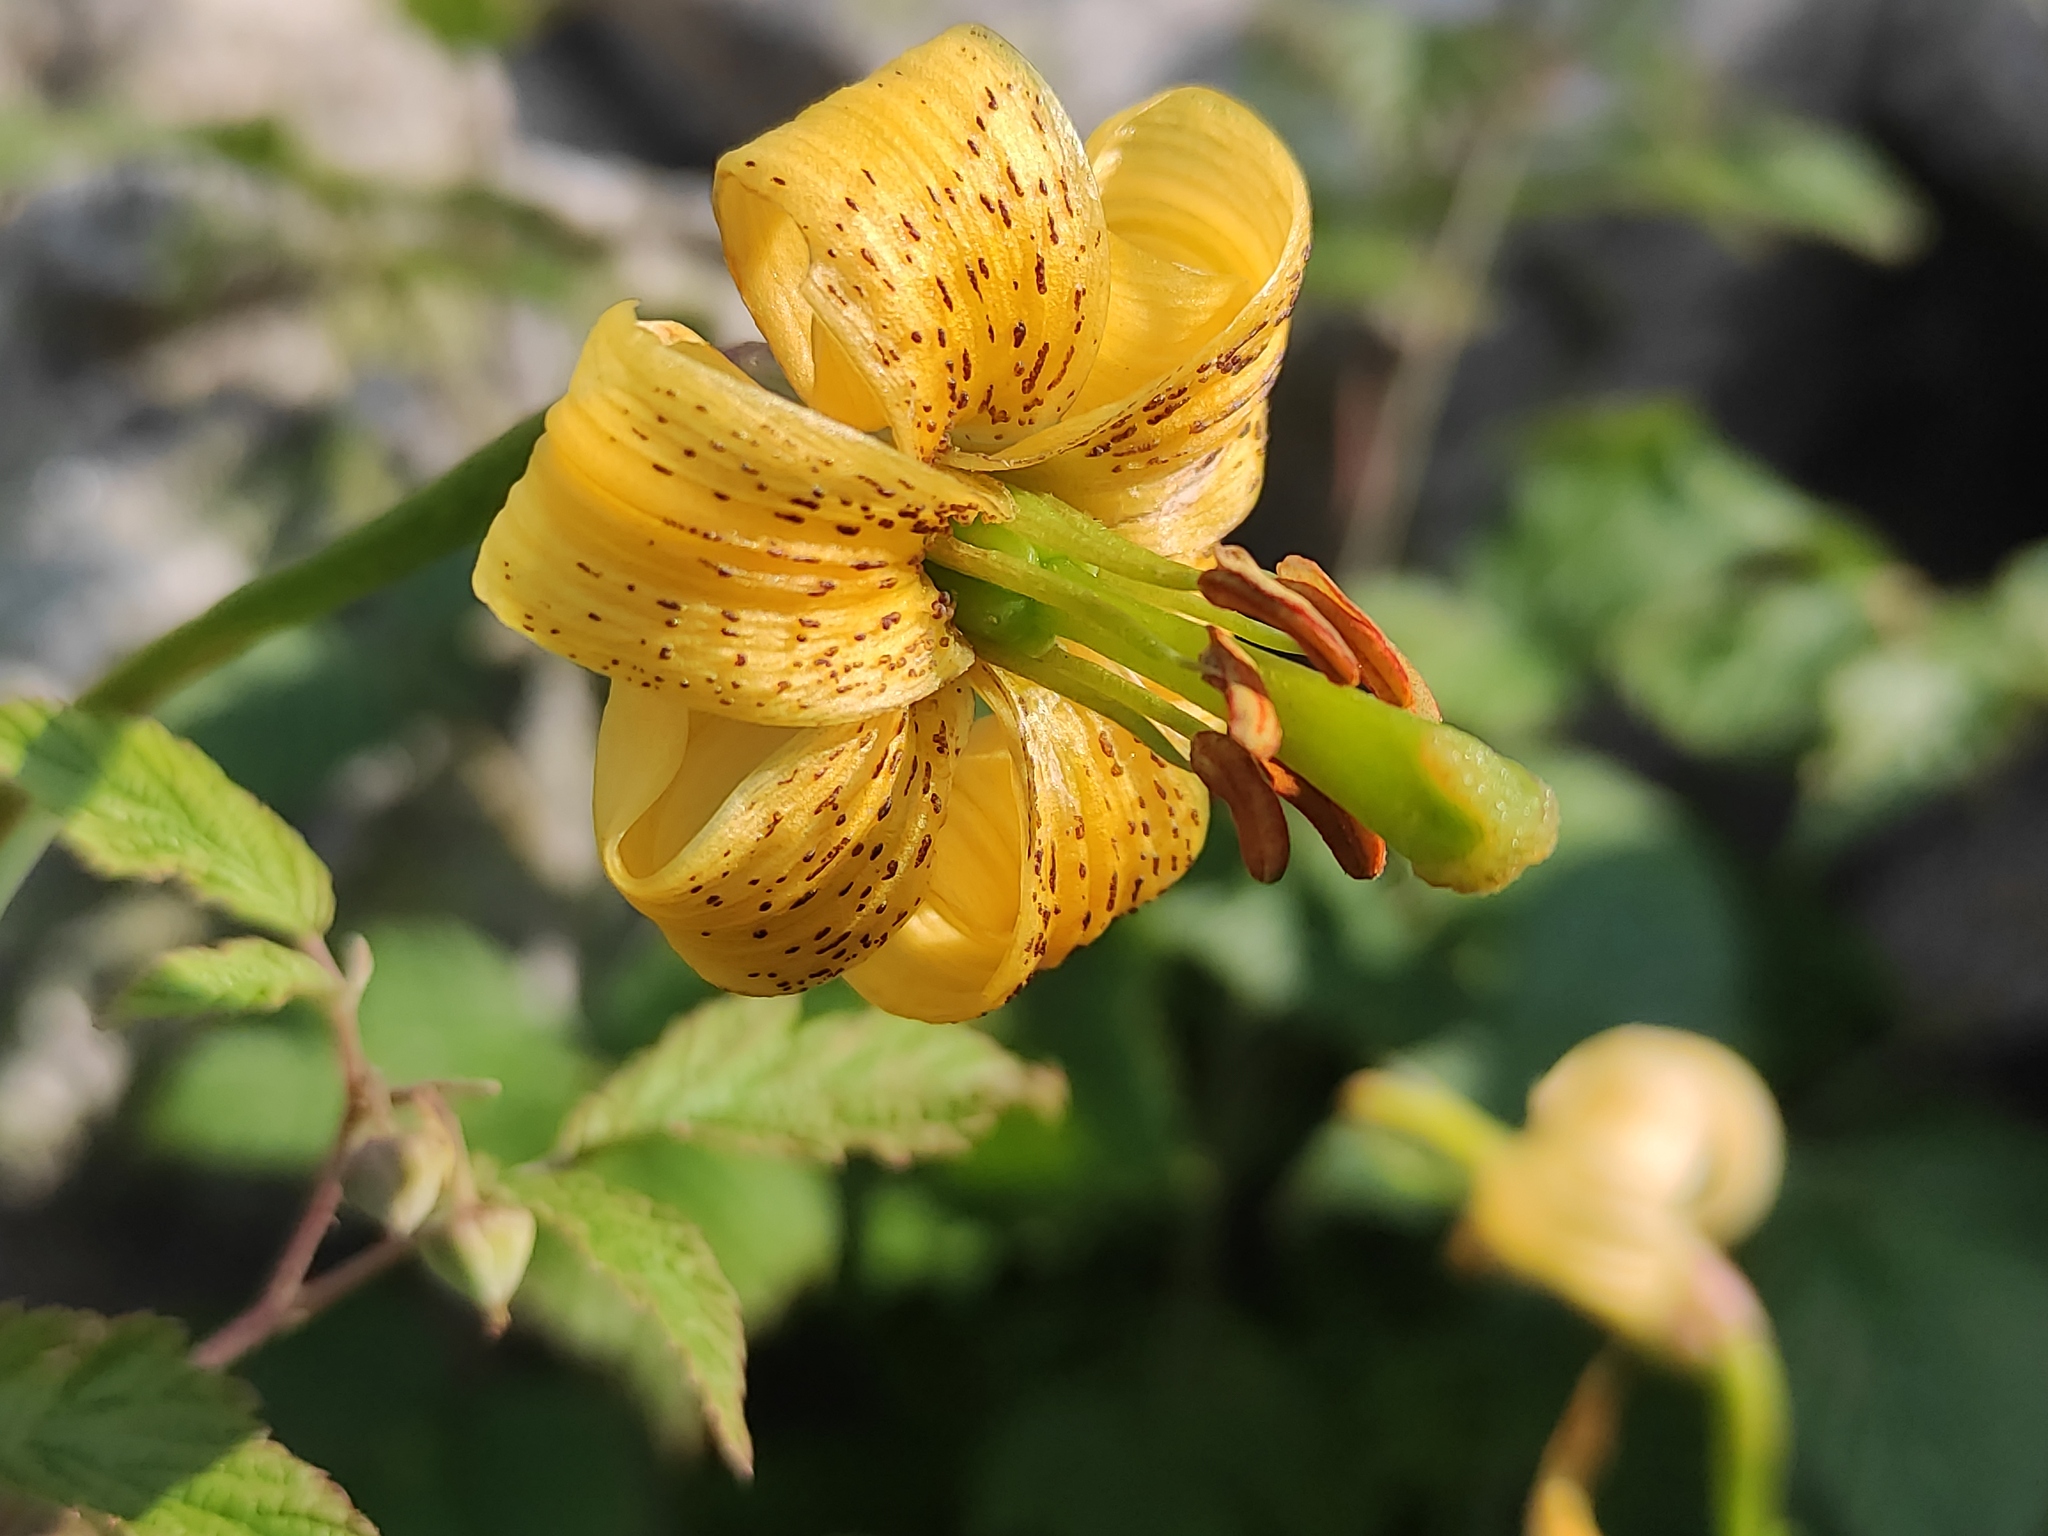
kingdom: Plantae
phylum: Tracheophyta
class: Liliopsida
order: Liliales
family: Liliaceae
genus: Lilium
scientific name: Lilium pyrenaicum
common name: Pyrenean lily
